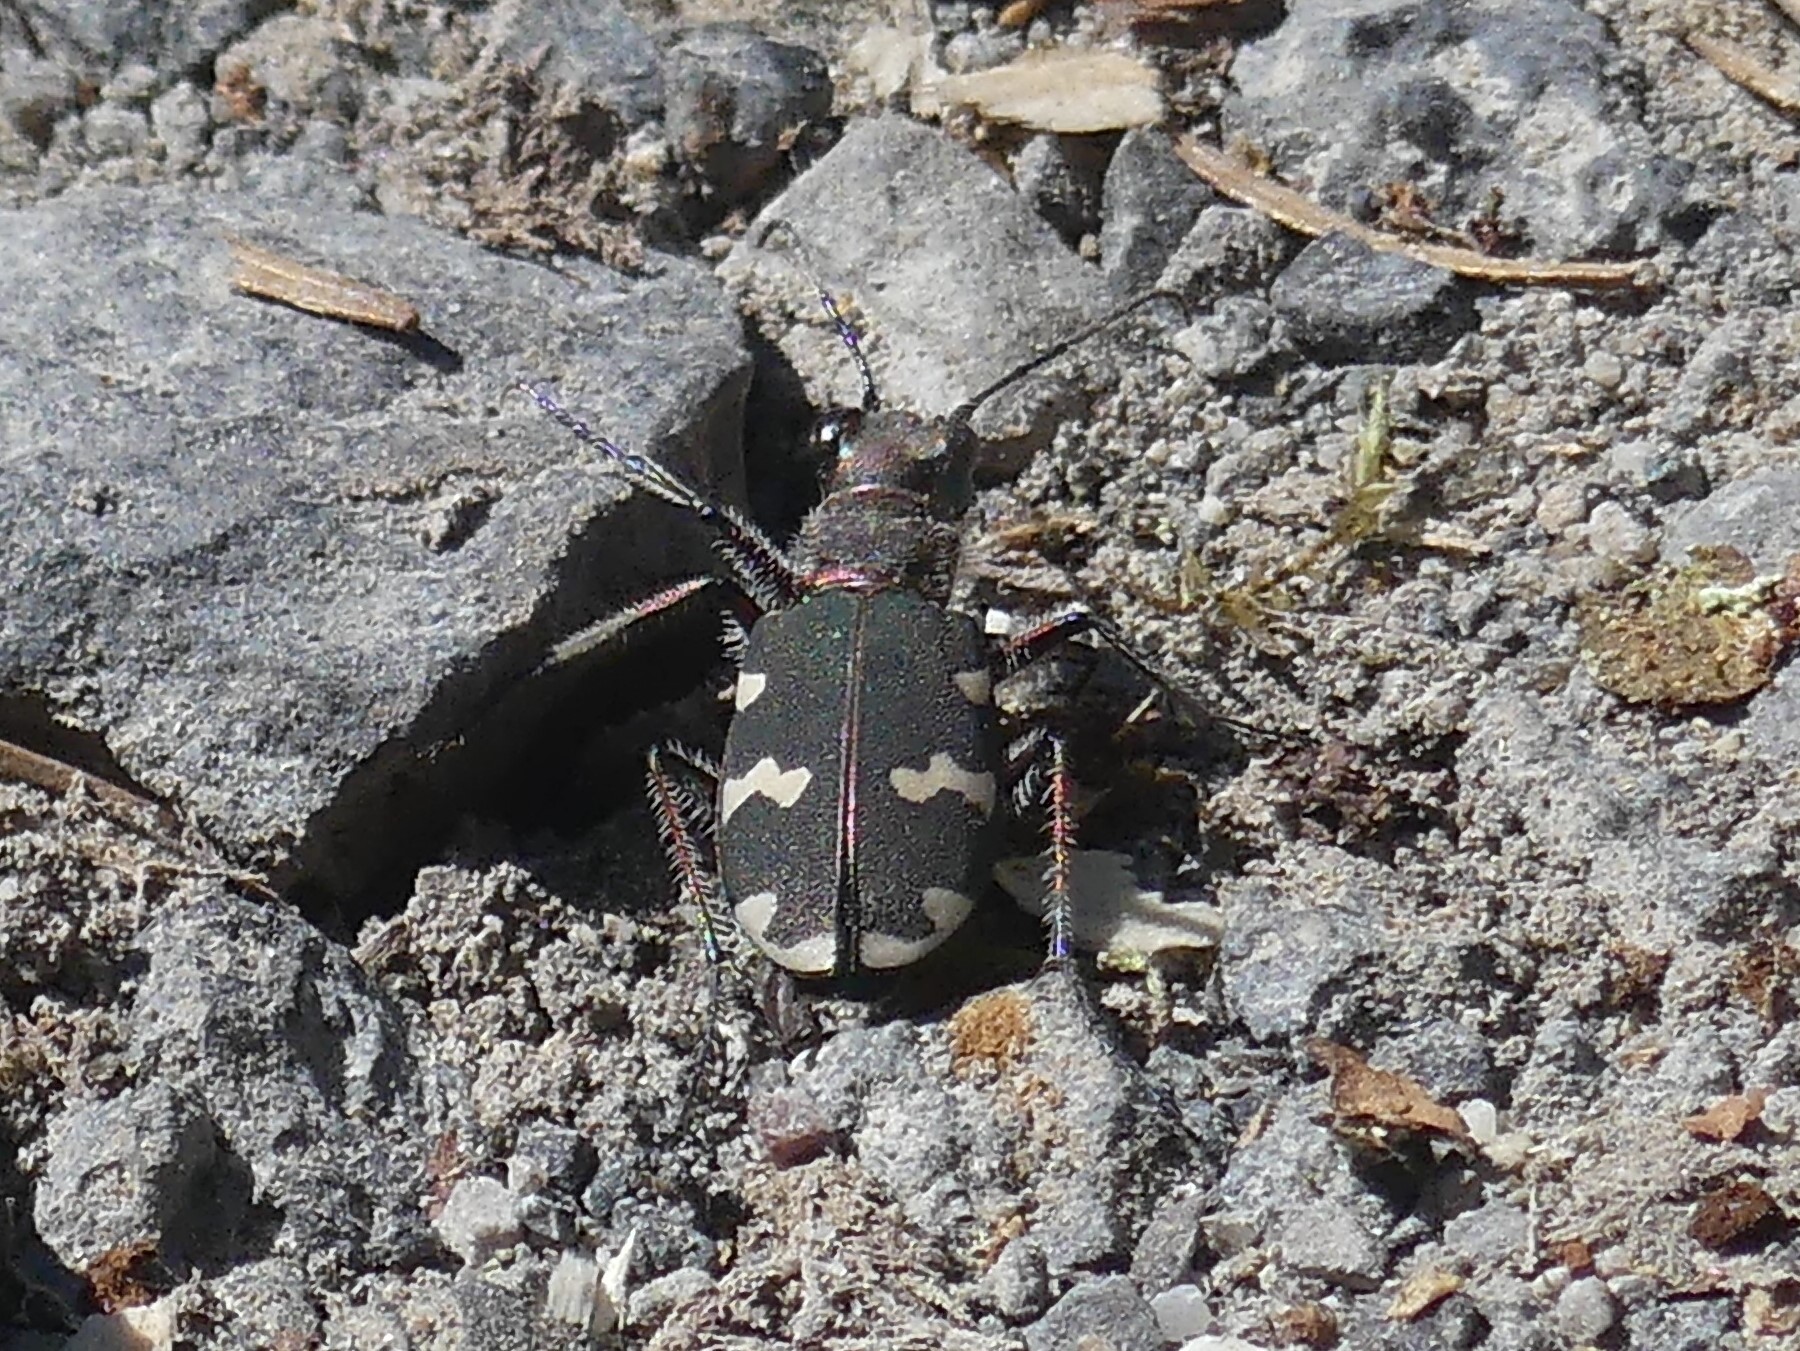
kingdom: Animalia
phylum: Arthropoda
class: Insecta
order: Coleoptera
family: Carabidae
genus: Cicindela
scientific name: Cicindela hybrida
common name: Northern dune tiger beetle
